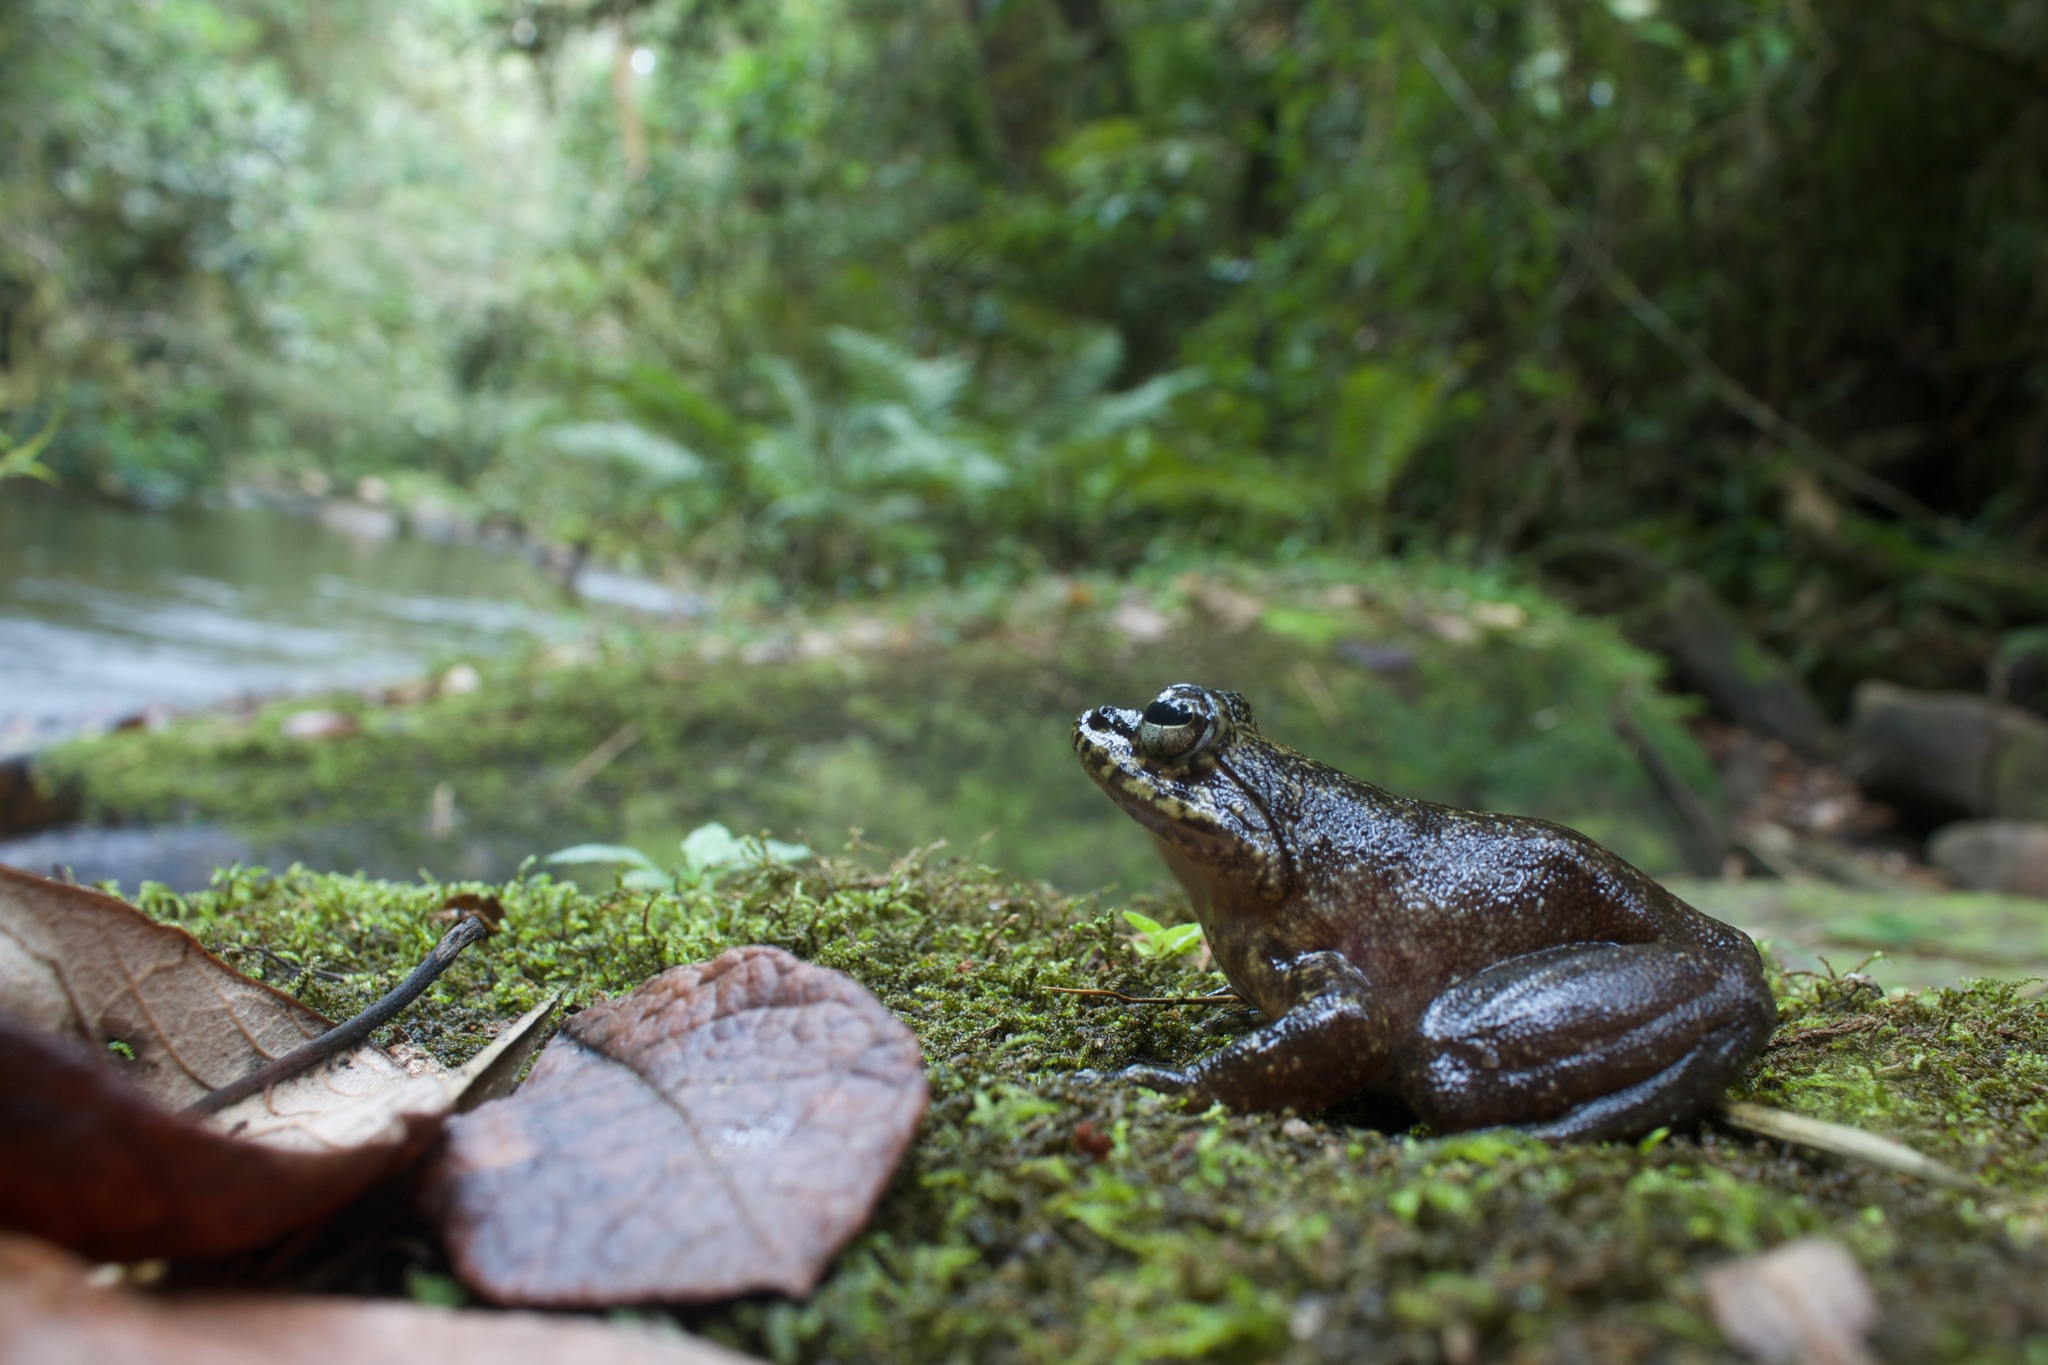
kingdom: Animalia
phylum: Chordata
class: Amphibia
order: Anura
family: Mantellidae
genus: Mantidactylus
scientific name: Mantidactylus grandidieri
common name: Grandidier's madagascar frog
